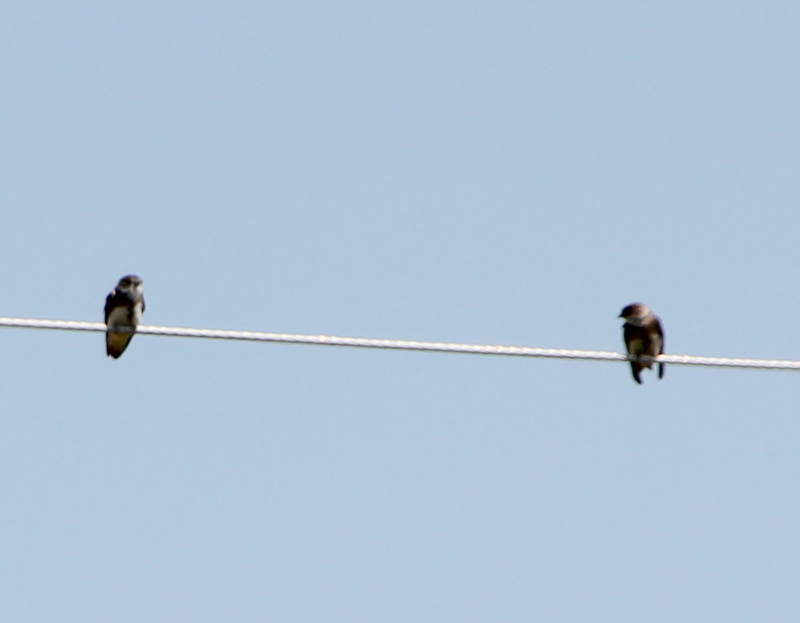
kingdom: Animalia
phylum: Chordata
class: Aves
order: Passeriformes
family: Hirundinidae
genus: Riparia
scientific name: Riparia riparia
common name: Sand martin
